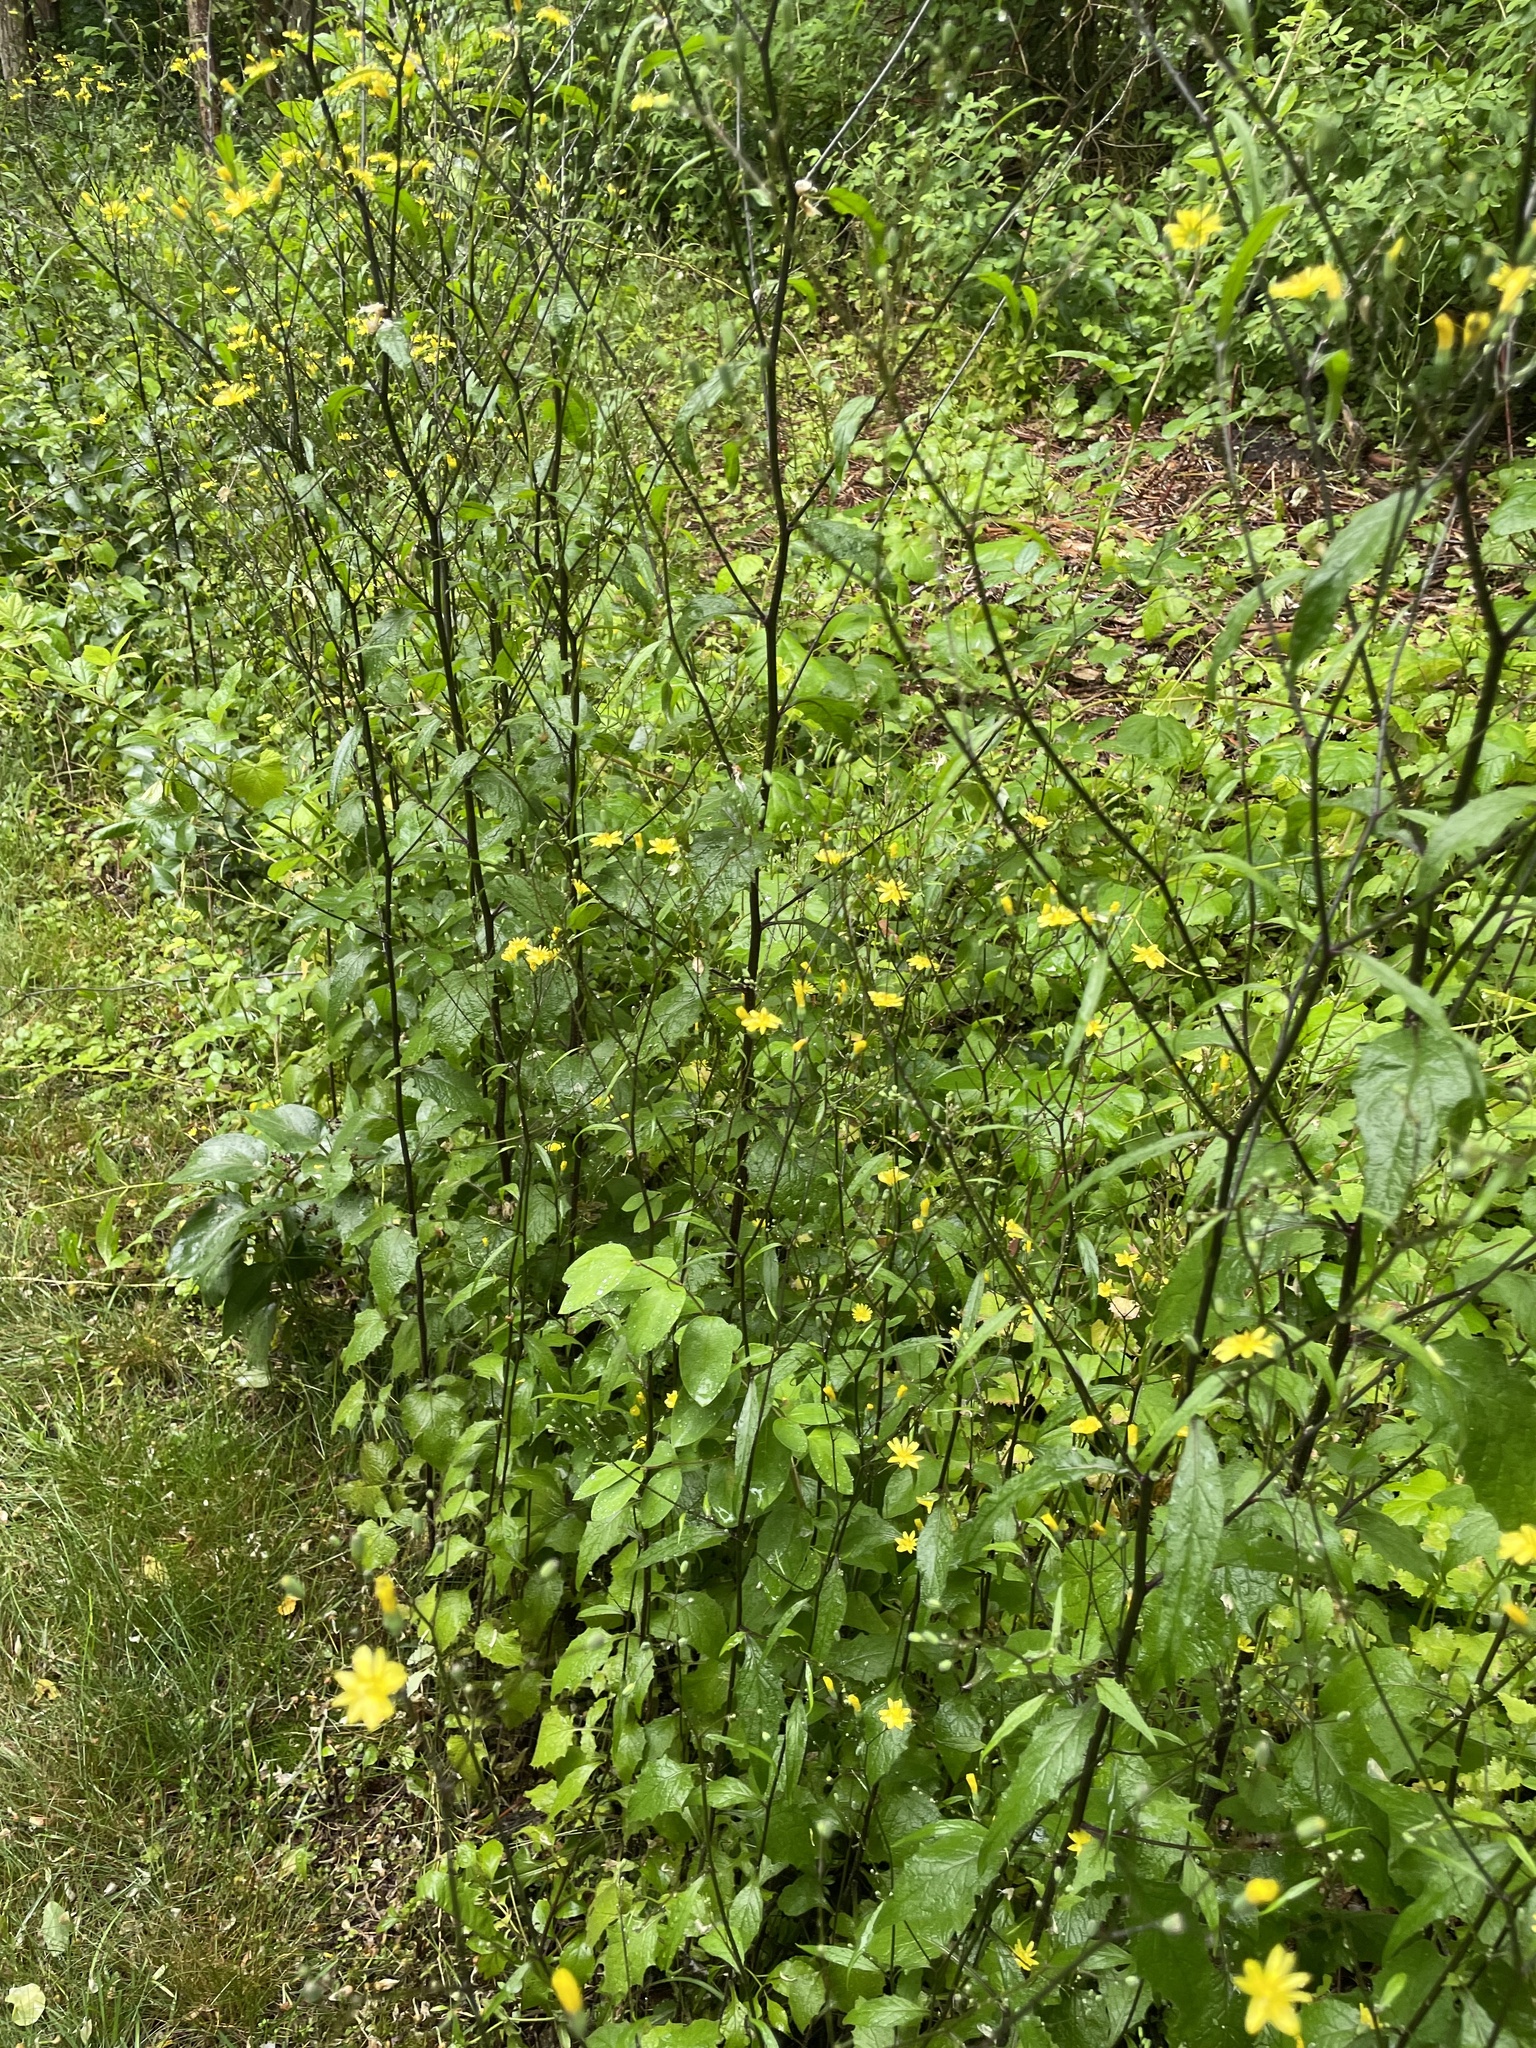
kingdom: Plantae
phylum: Tracheophyta
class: Magnoliopsida
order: Asterales
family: Asteraceae
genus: Lapsana
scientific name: Lapsana communis
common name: Nipplewort
